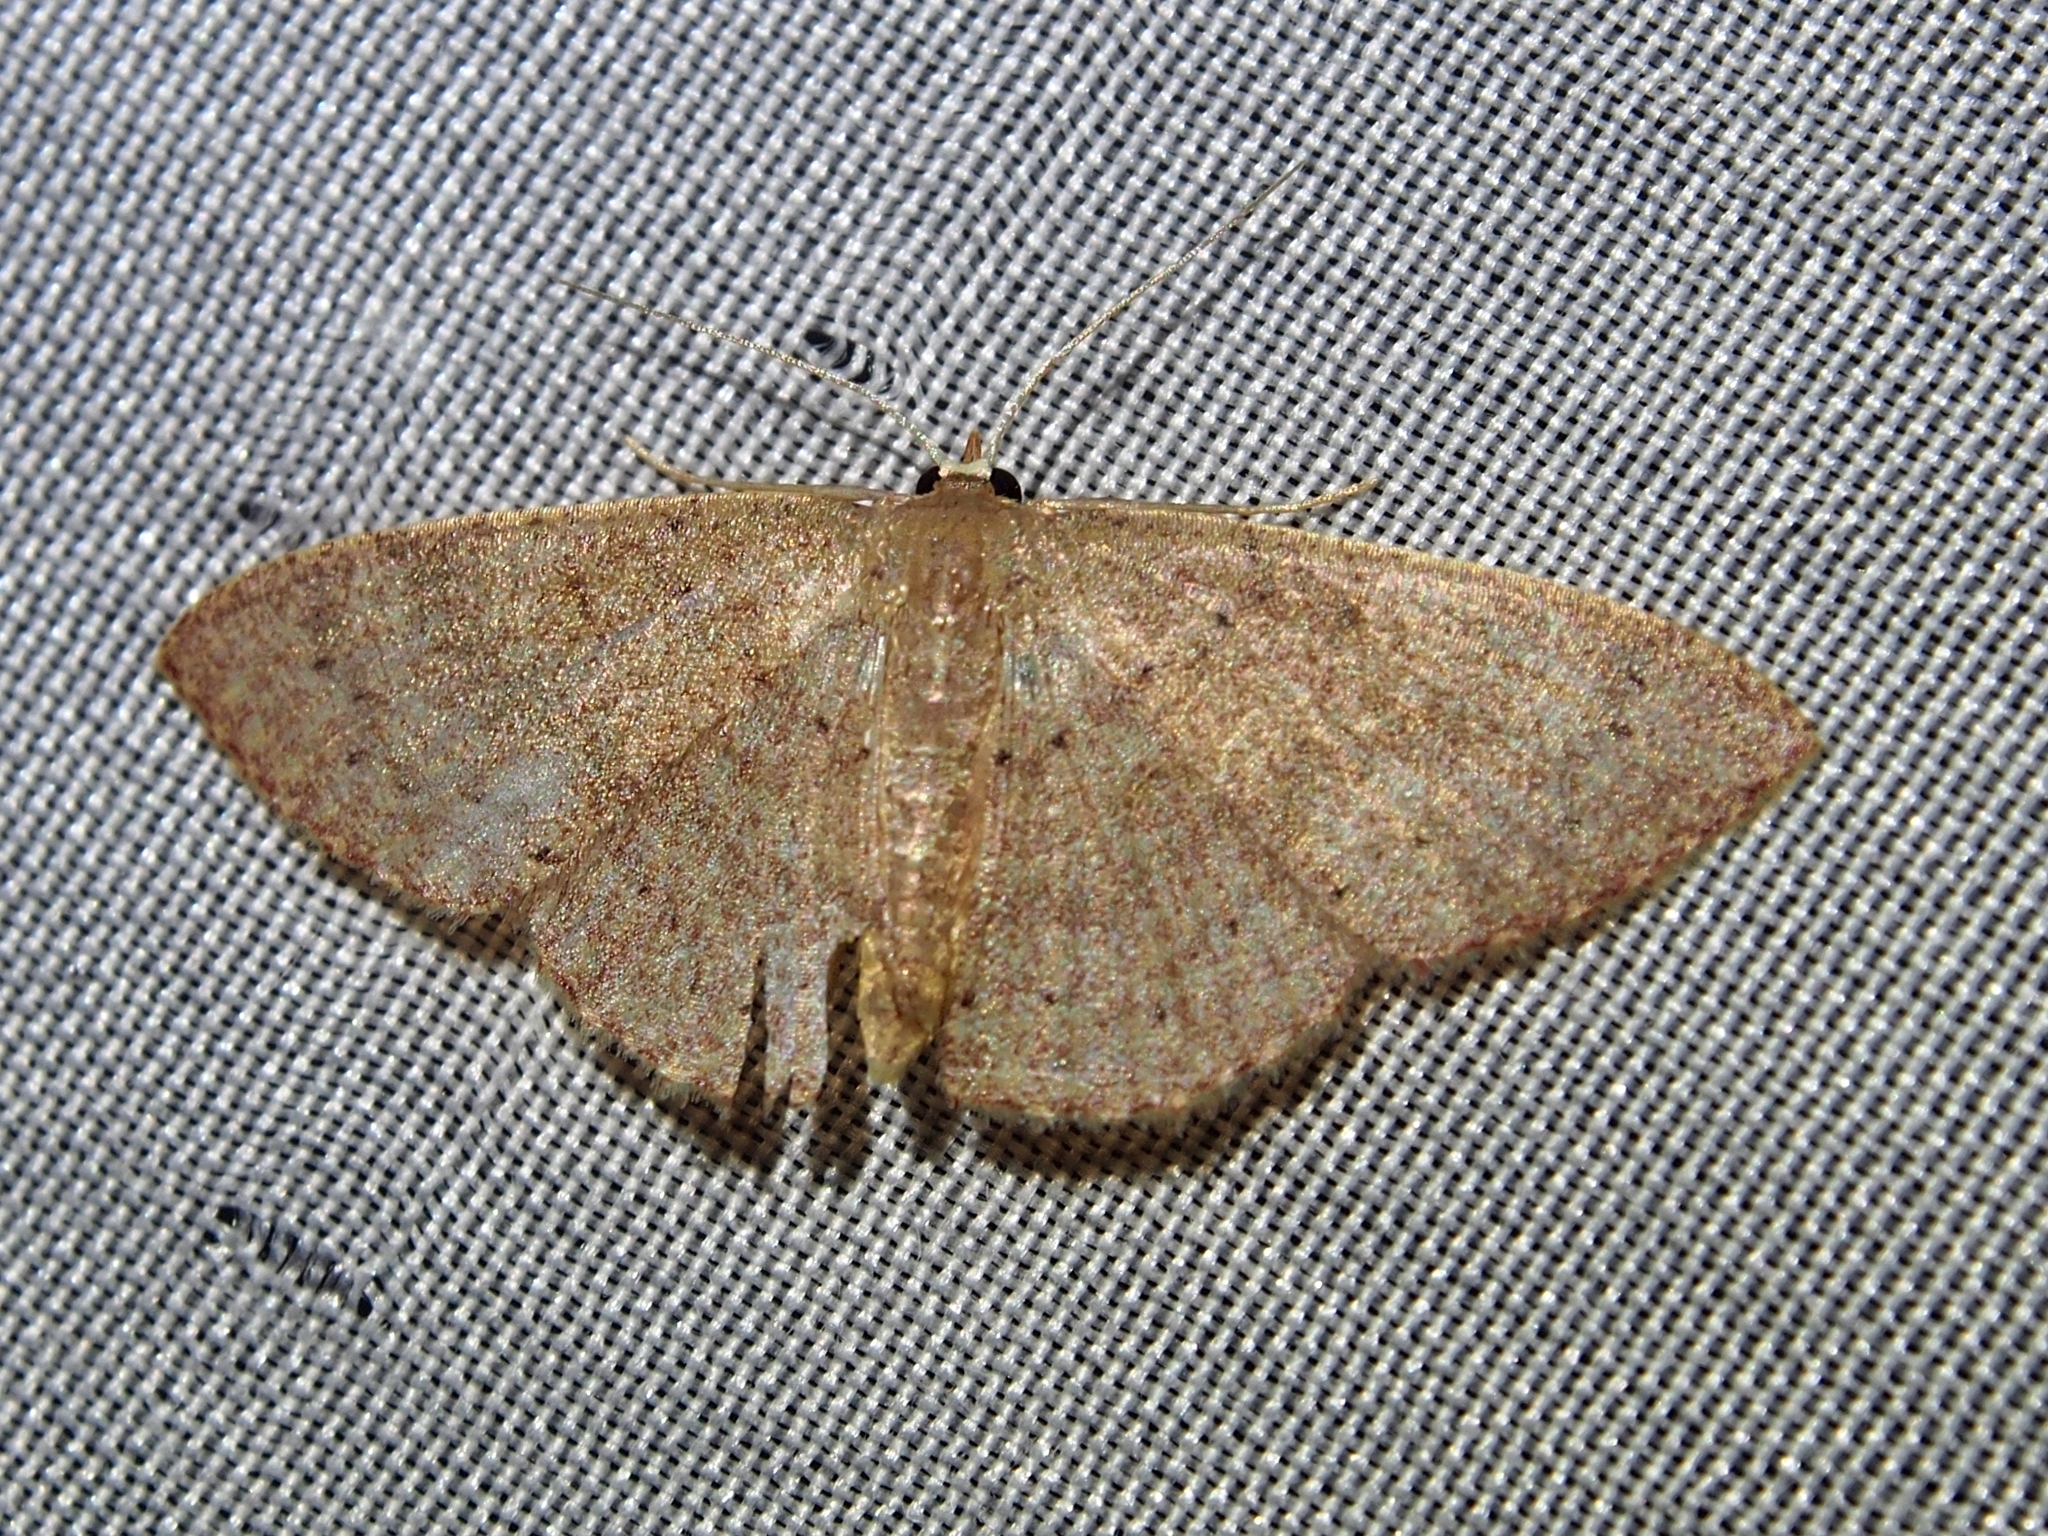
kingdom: Animalia
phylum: Arthropoda
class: Insecta
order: Lepidoptera
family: Geometridae
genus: Pleuroprucha
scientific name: Pleuroprucha hypoxia
